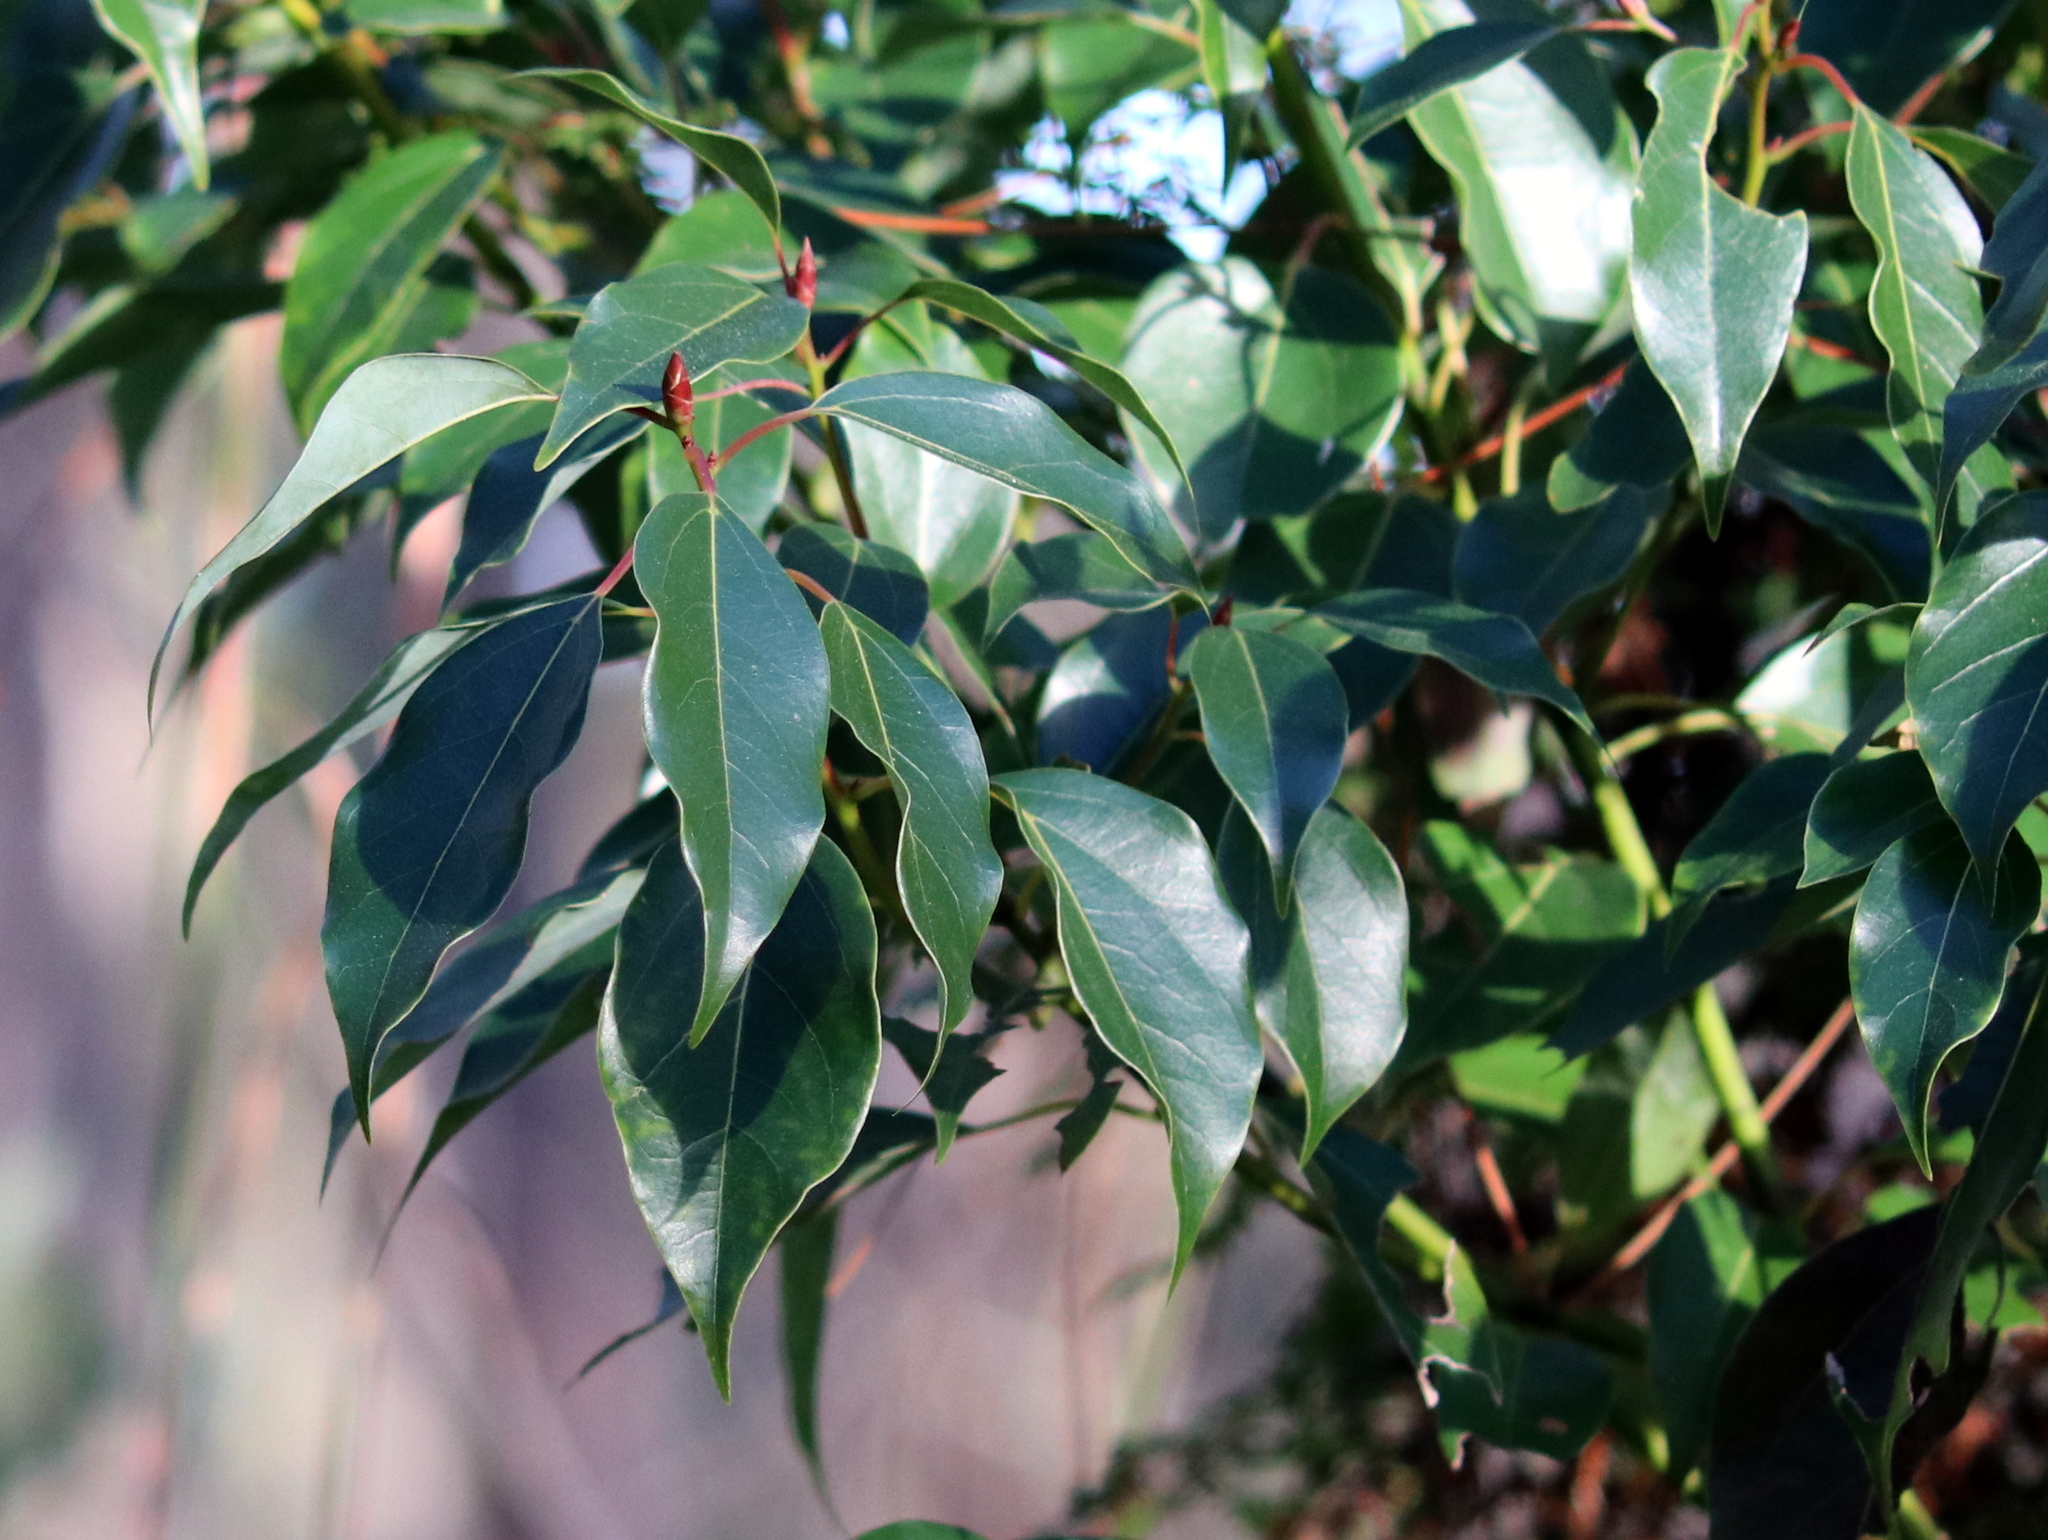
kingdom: Plantae
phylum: Tracheophyta
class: Magnoliopsida
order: Laurales
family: Lauraceae
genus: Cinnamomum
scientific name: Cinnamomum camphora
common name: Camphortree
